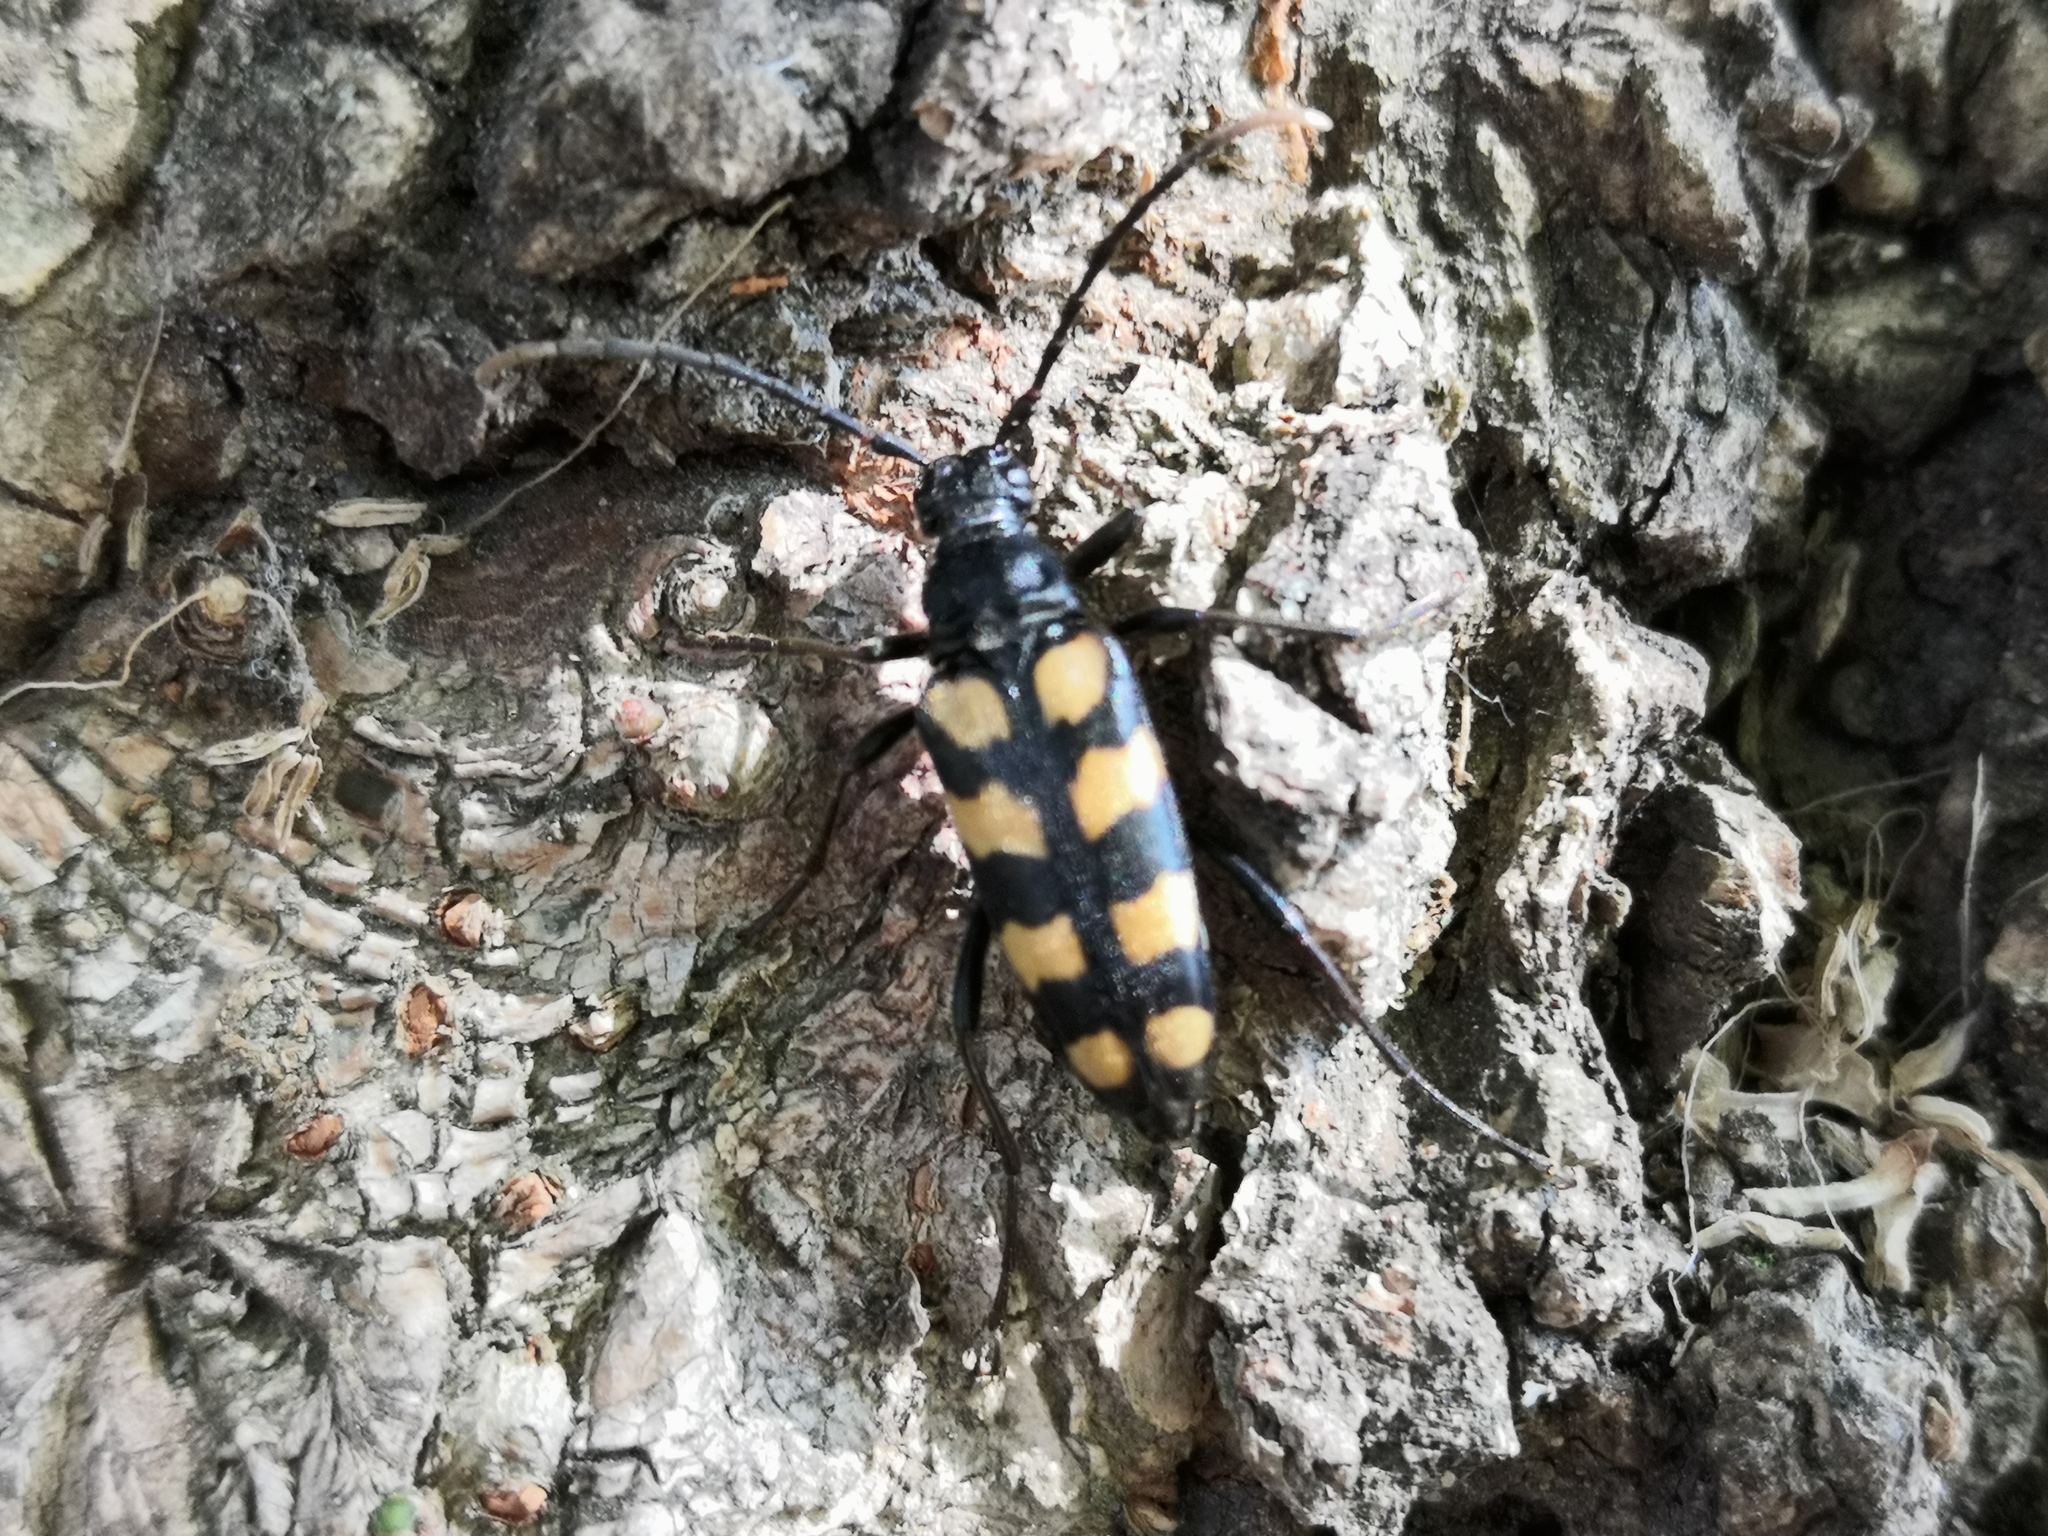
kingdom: Animalia
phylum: Arthropoda
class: Insecta
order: Coleoptera
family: Cerambycidae
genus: Leptura
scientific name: Leptura quadrifasciata
